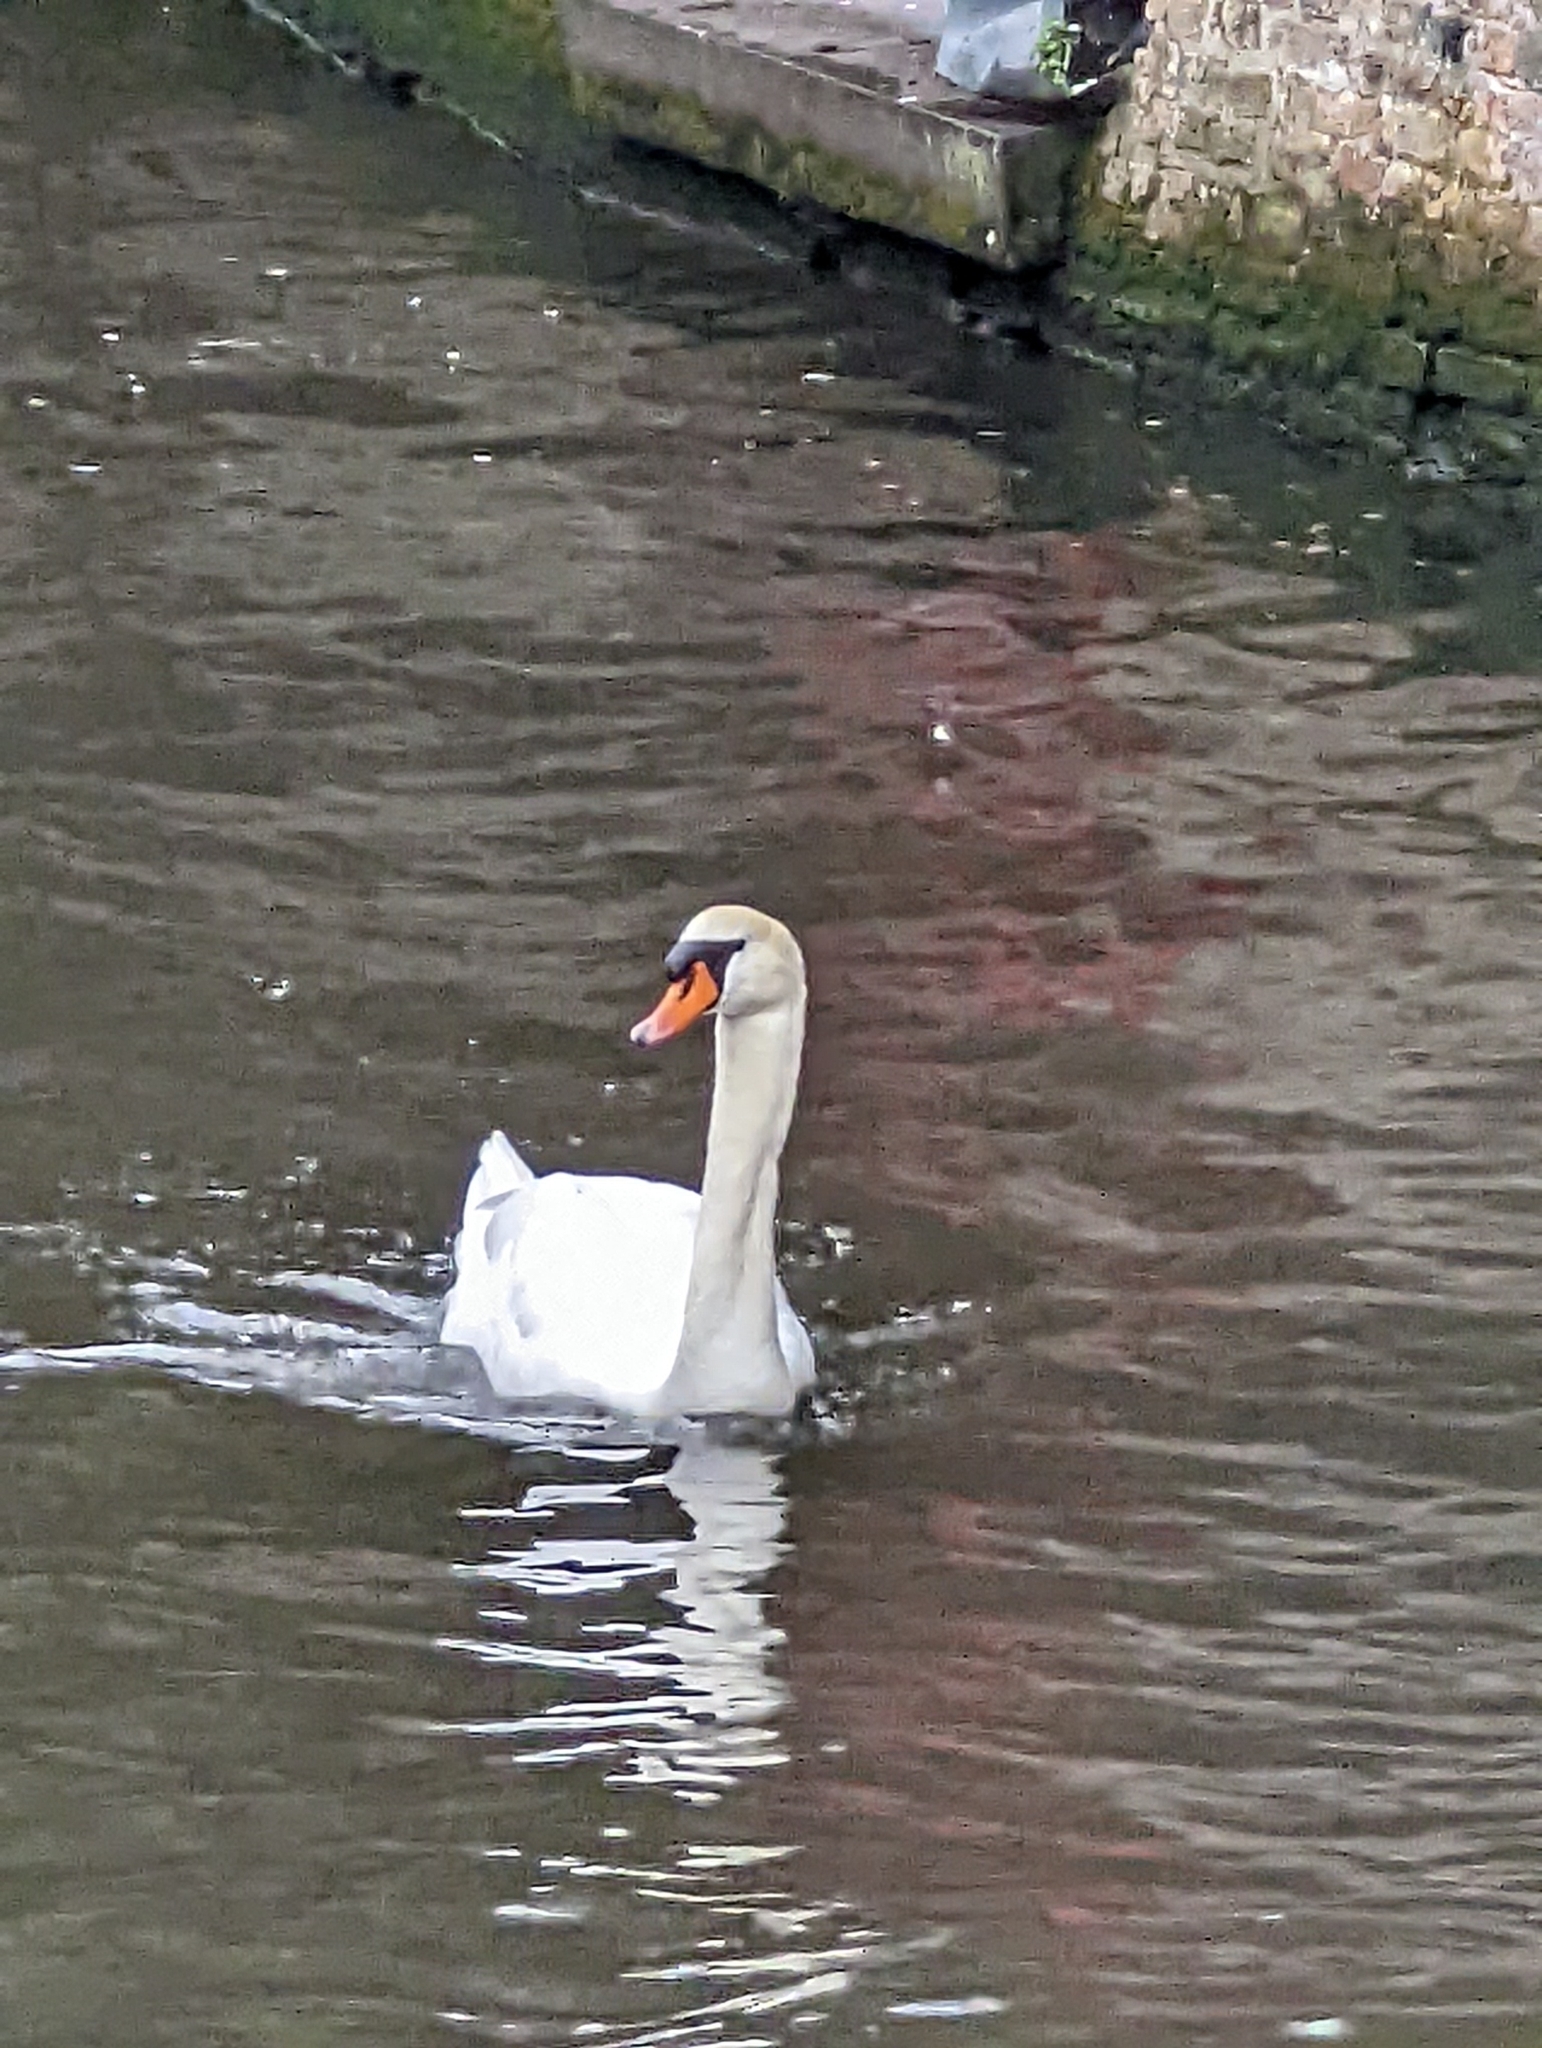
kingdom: Animalia
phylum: Chordata
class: Aves
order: Anseriformes
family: Anatidae
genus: Cygnus
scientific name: Cygnus olor
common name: Mute swan
